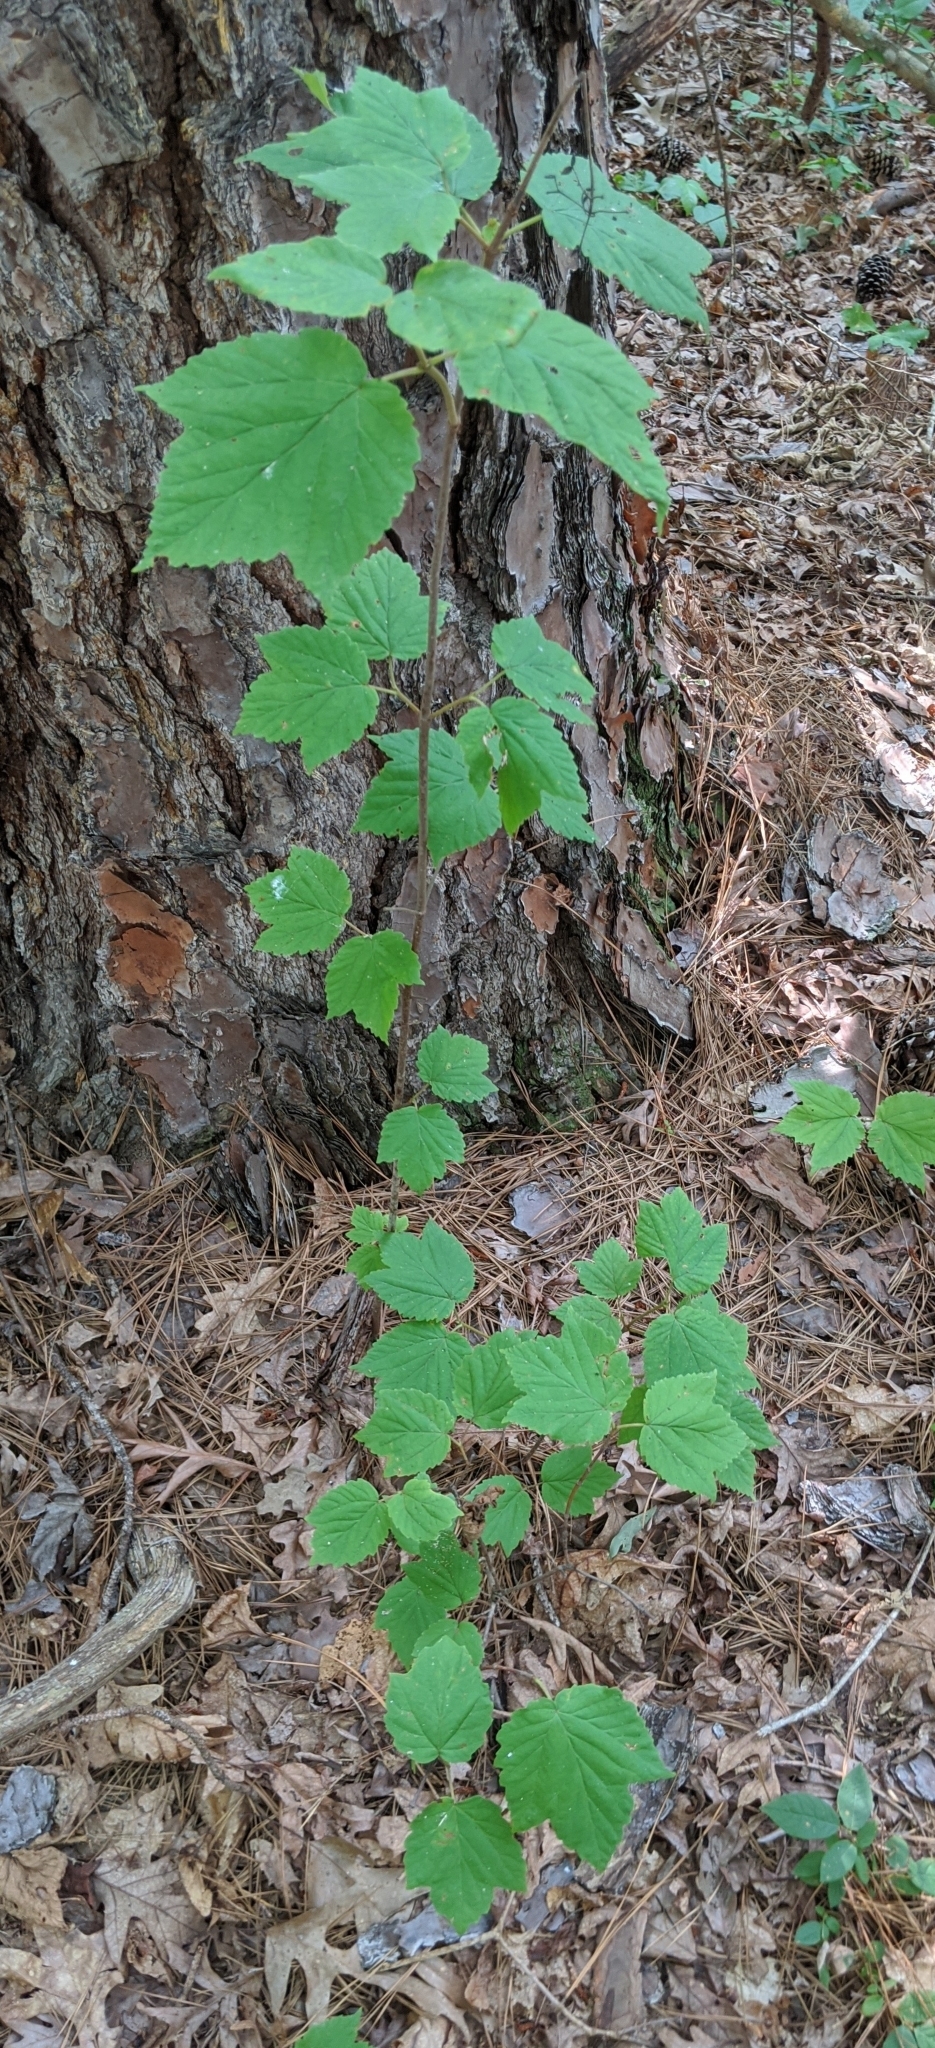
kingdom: Plantae
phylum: Tracheophyta
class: Magnoliopsida
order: Dipsacales
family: Viburnaceae
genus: Viburnum
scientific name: Viburnum acerifolium
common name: Dockmackie
